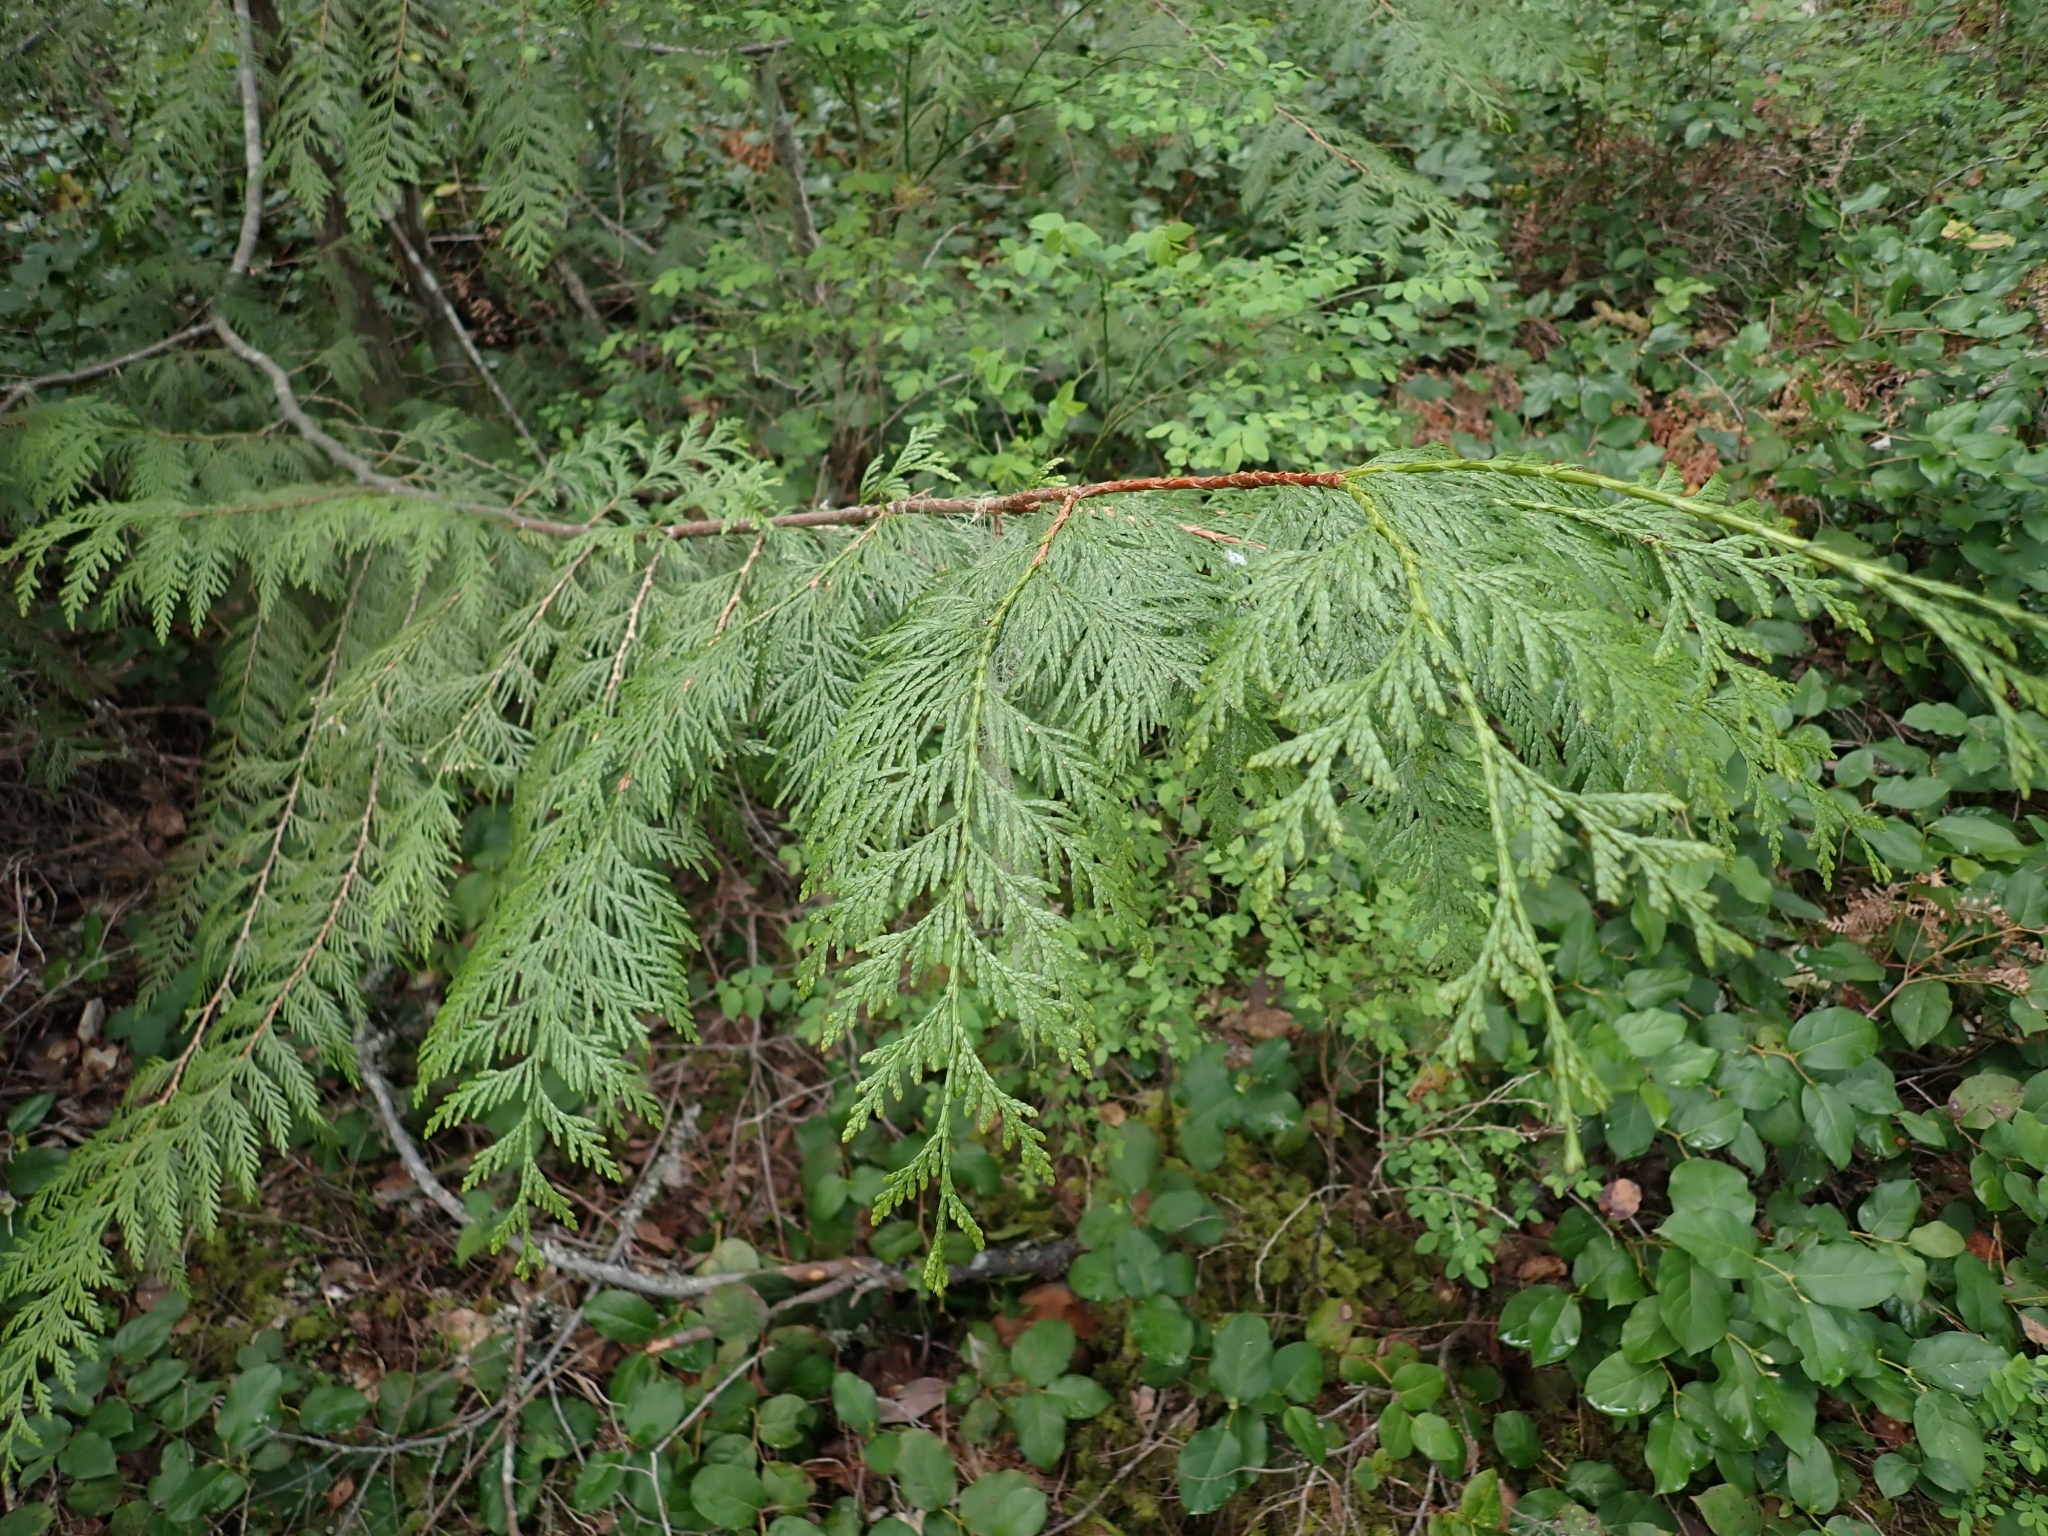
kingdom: Plantae
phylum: Tracheophyta
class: Pinopsida
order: Pinales
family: Cupressaceae
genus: Thuja
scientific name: Thuja plicata
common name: Western red-cedar
